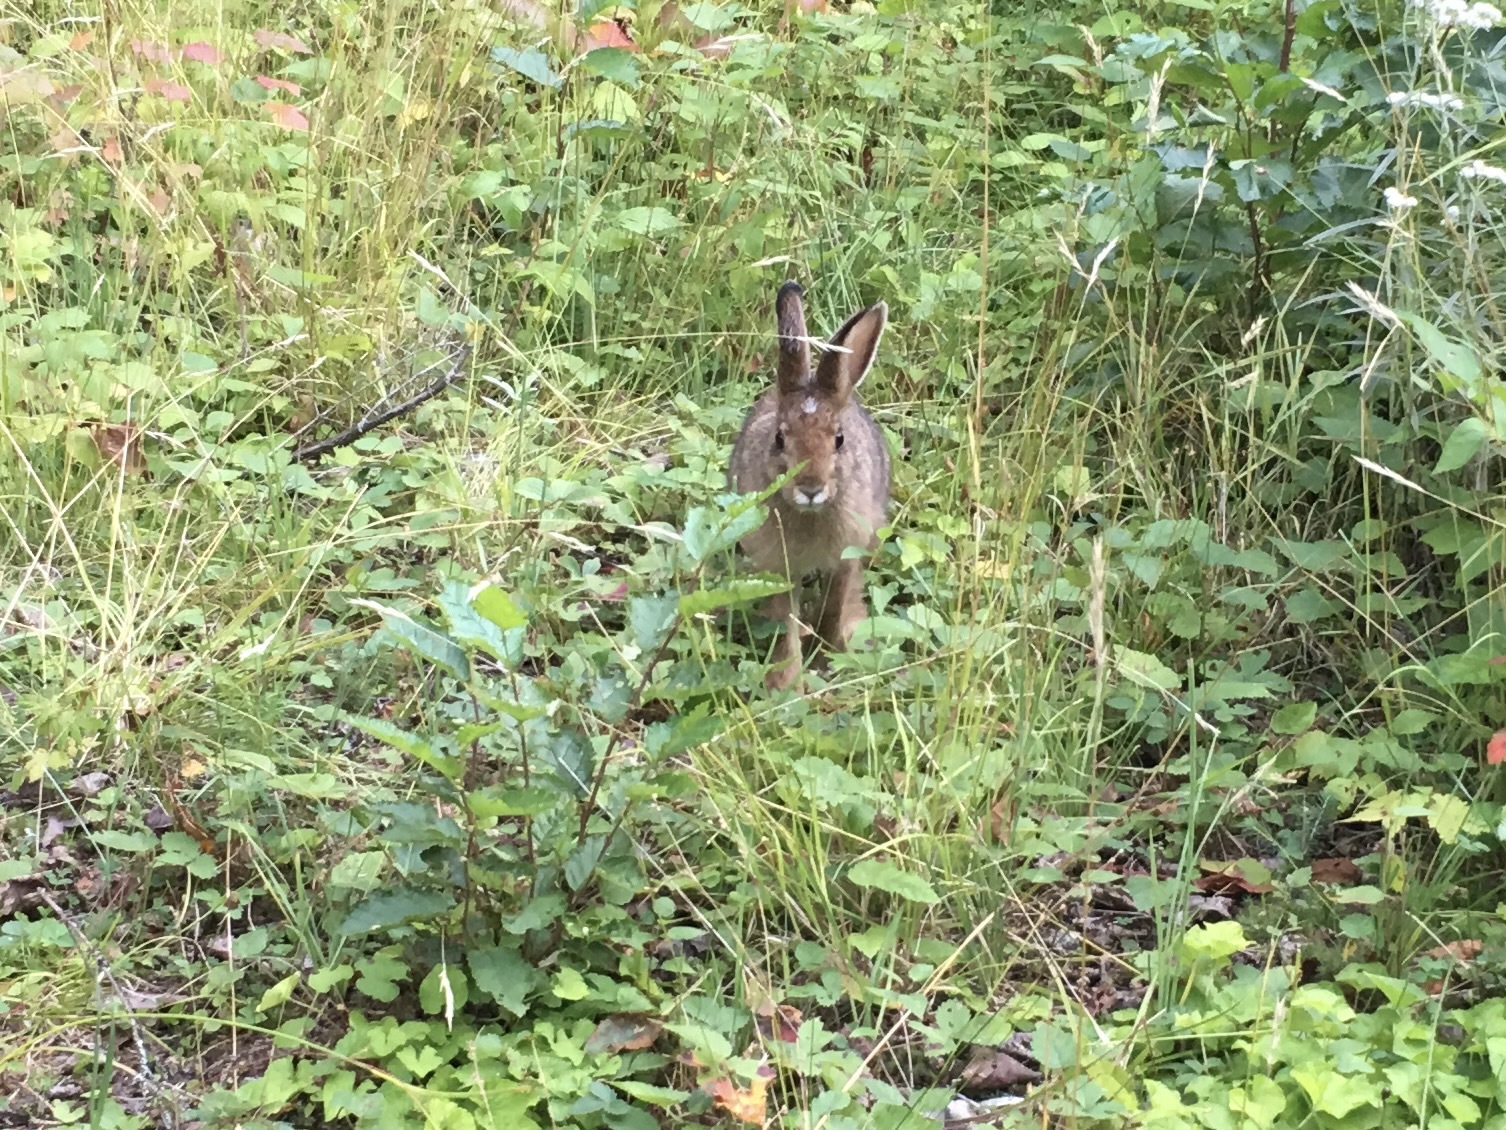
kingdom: Animalia
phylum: Chordata
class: Mammalia
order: Lagomorpha
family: Leporidae
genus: Lepus
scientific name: Lepus americanus
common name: Snowshoe hare
